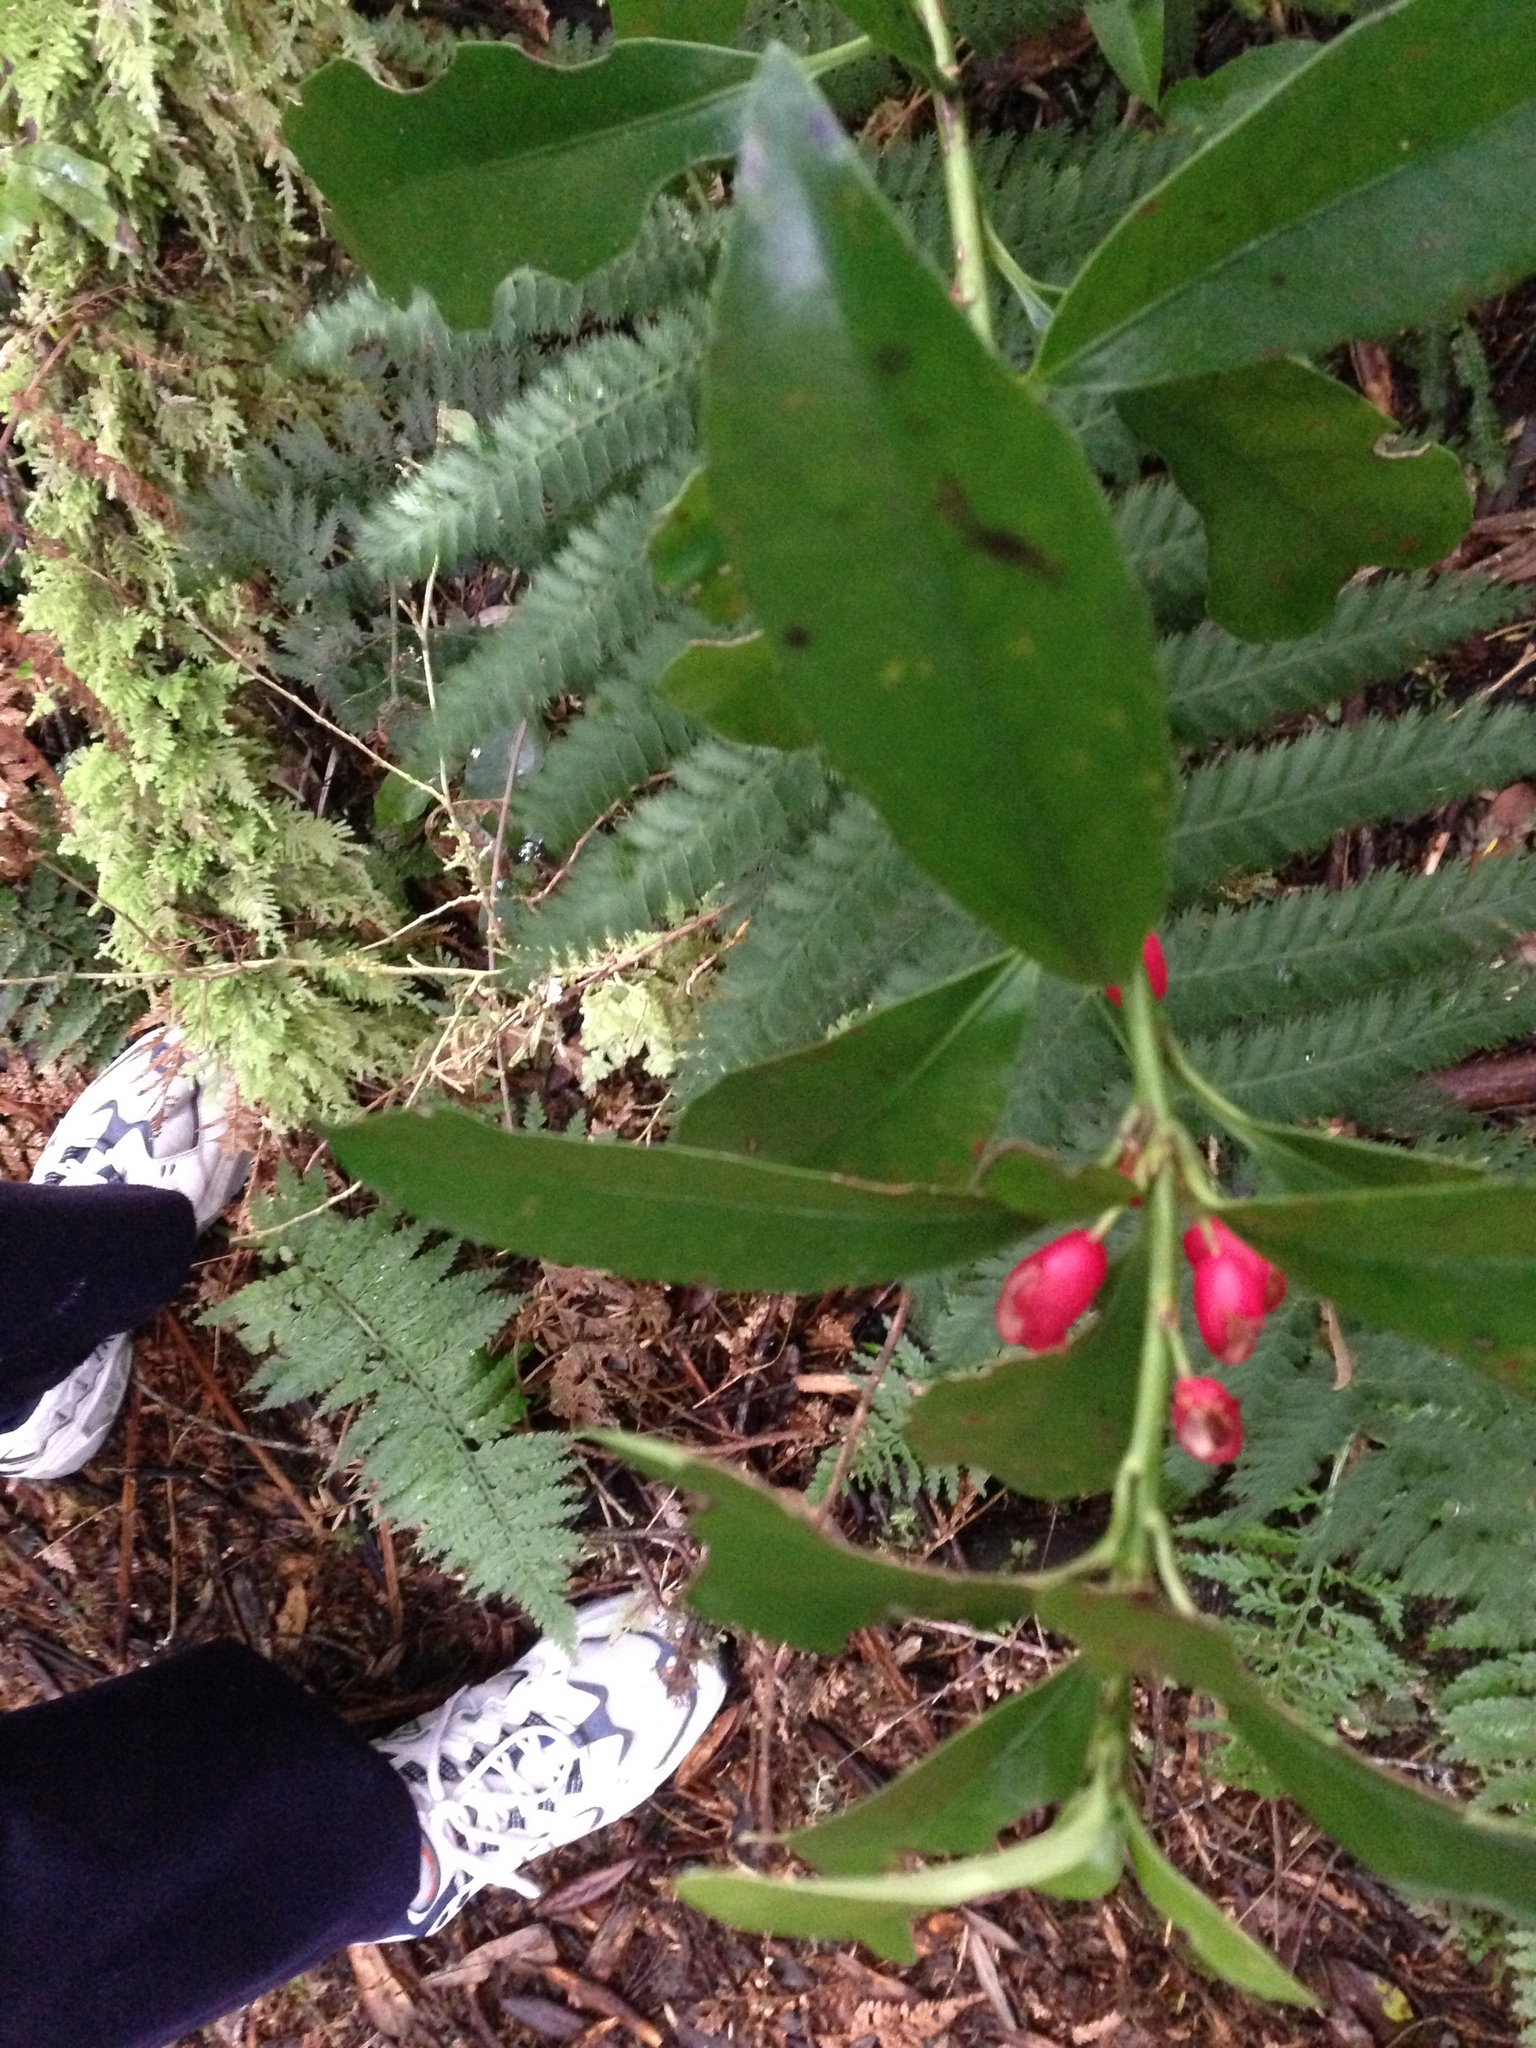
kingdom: Plantae
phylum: Tracheophyta
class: Magnoliopsida
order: Asterales
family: Alseuosmiaceae
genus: Alseuosmia
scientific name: Alseuosmia turneri
